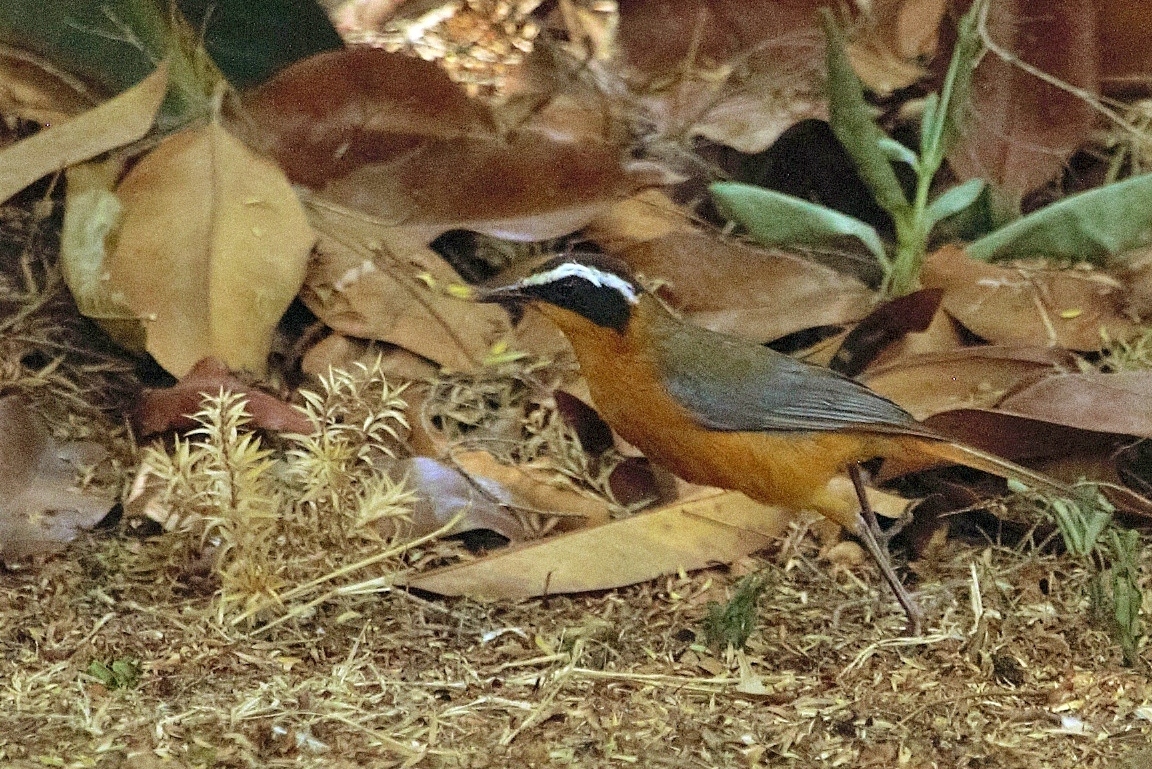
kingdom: Animalia
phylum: Chordata
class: Aves
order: Passeriformes
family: Muscicapidae
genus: Cossypha
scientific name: Cossypha heuglini
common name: White-browed robin-chat
